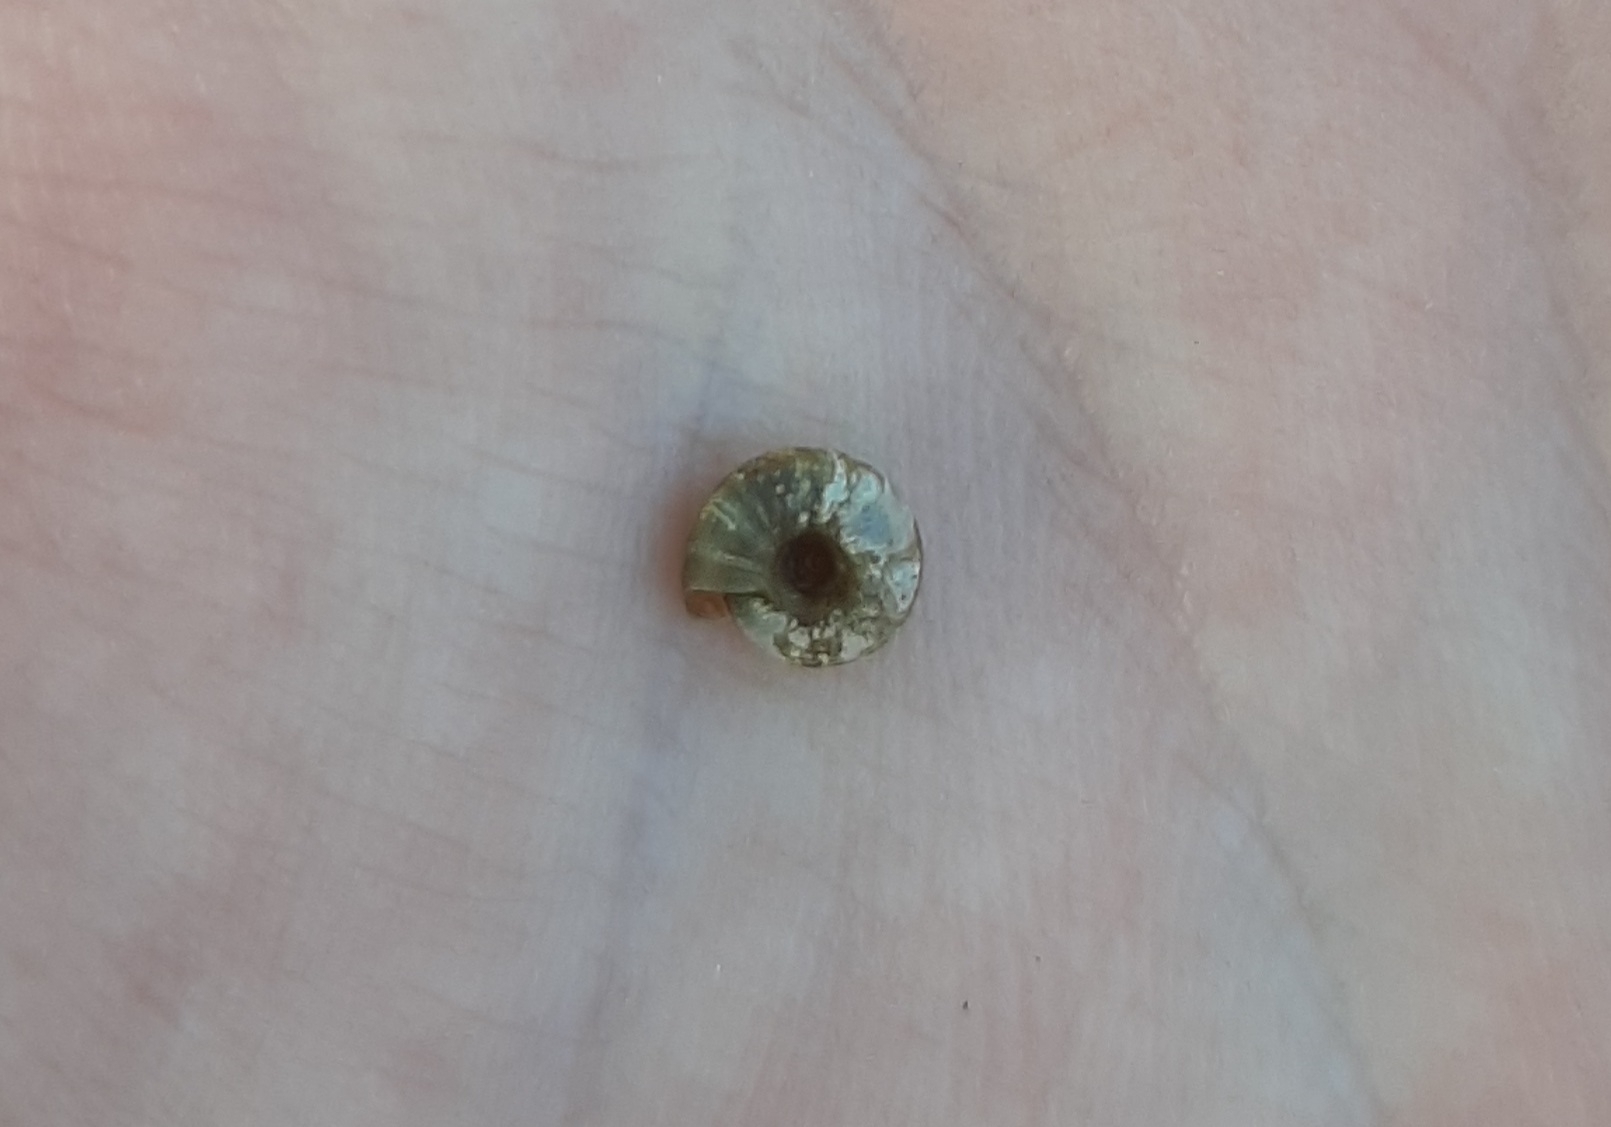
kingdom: Animalia
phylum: Mollusca
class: Gastropoda
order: Stylommatophora
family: Discidae
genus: Discus
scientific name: Discus rotundatus
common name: Rounded snail
